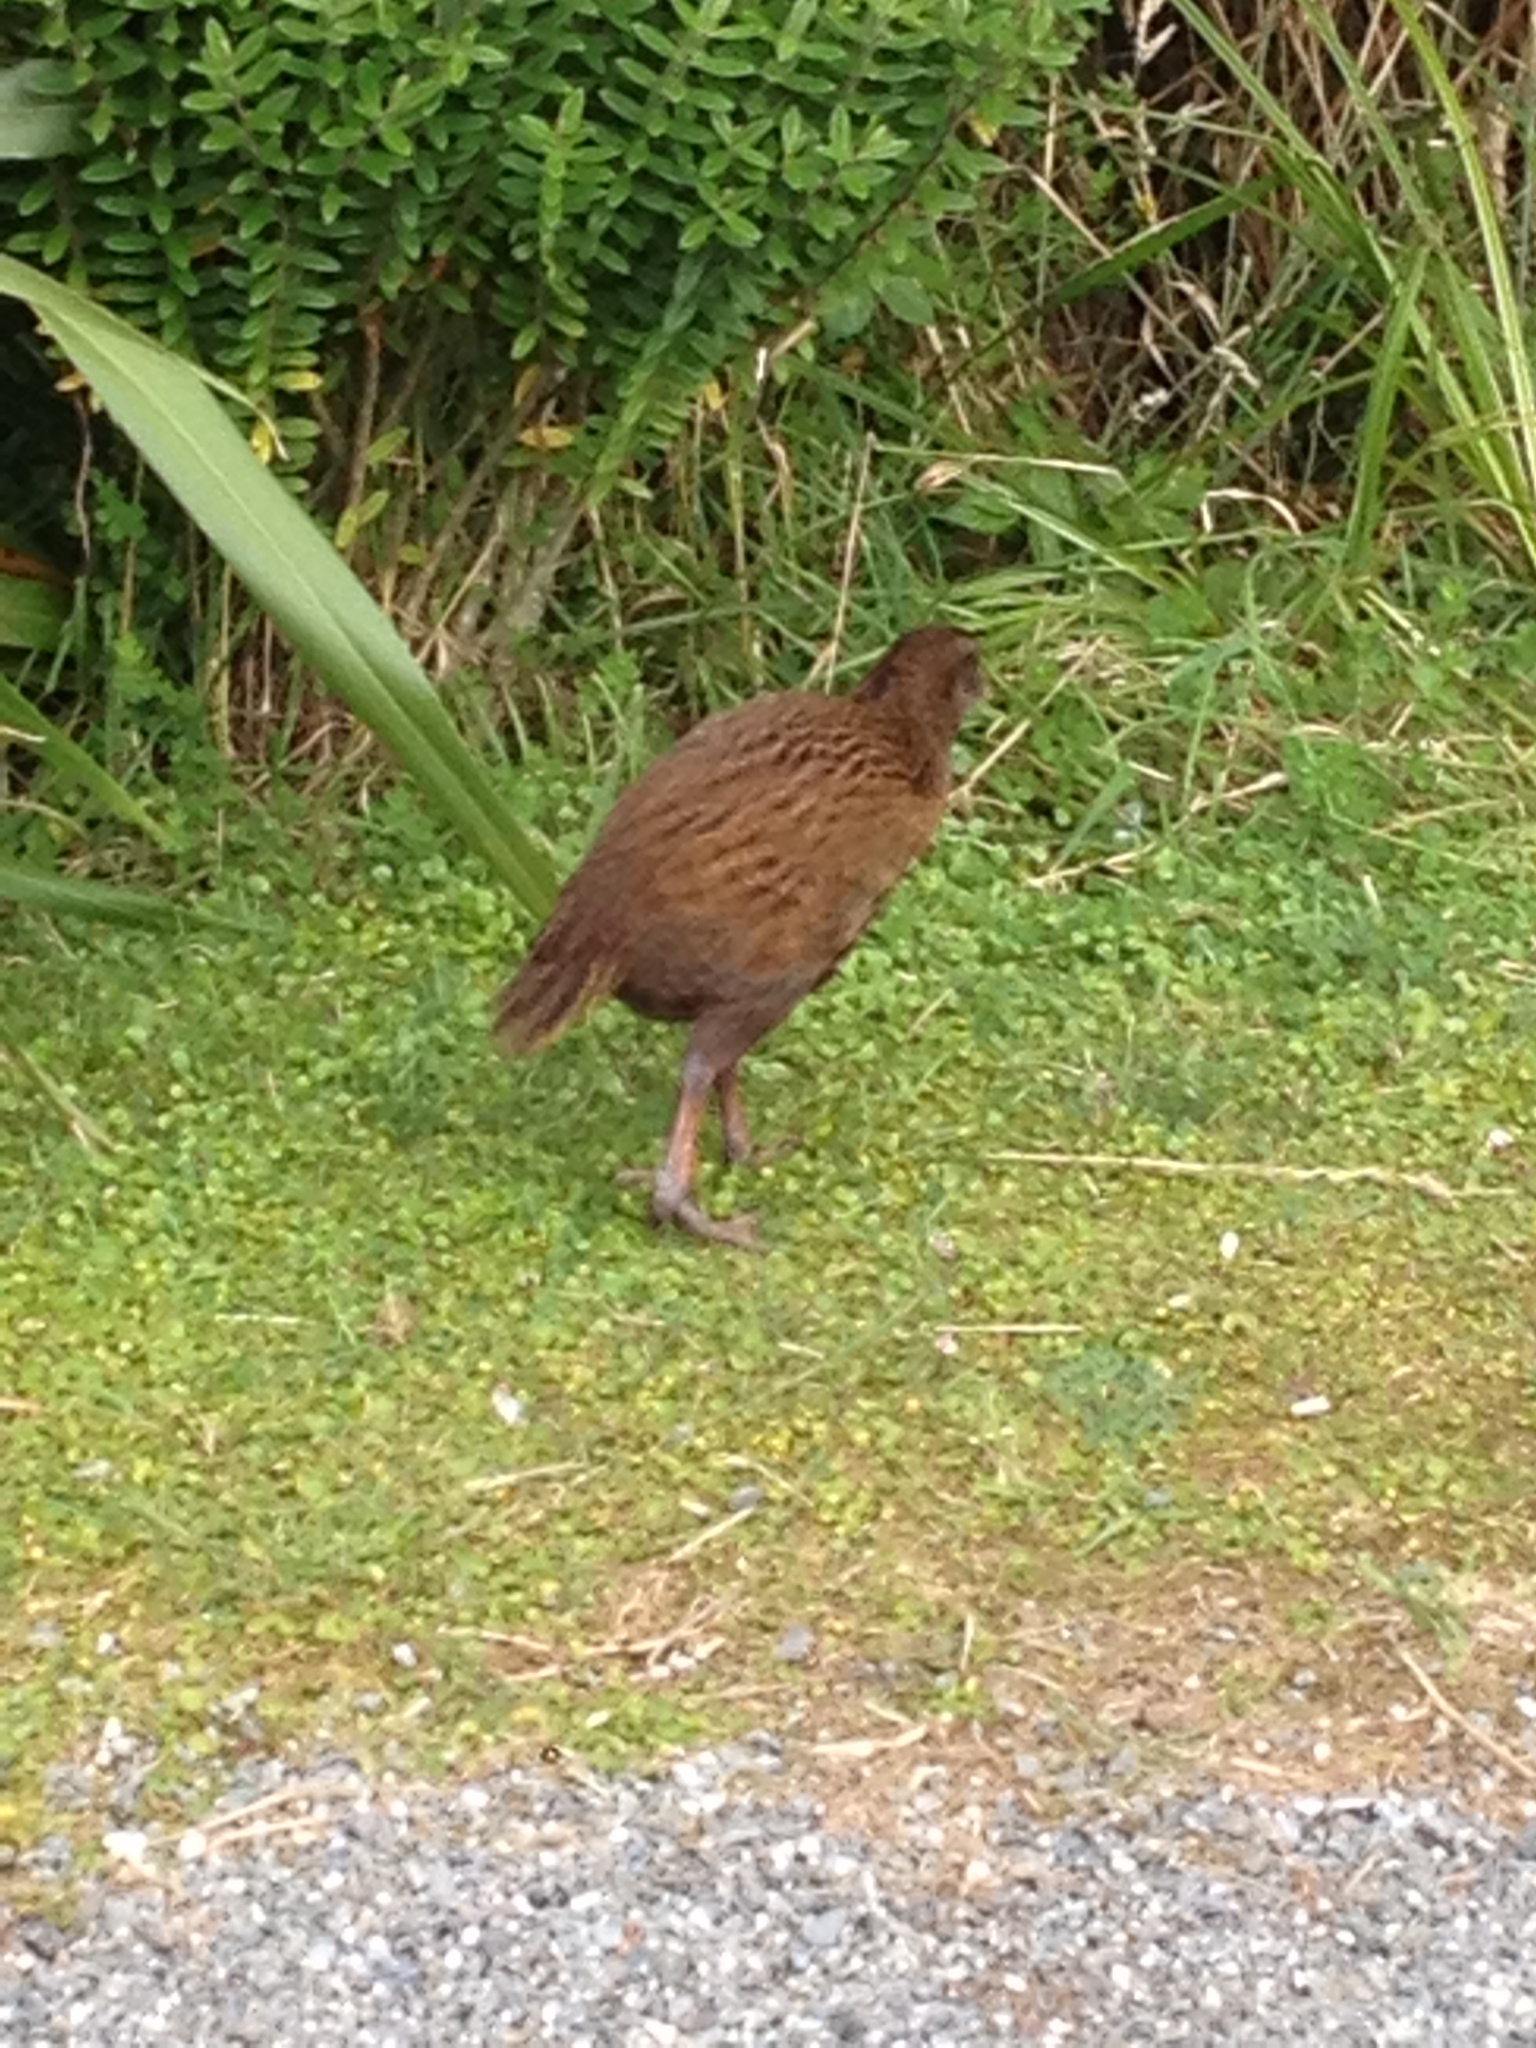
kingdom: Animalia
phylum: Chordata
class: Aves
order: Gruiformes
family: Rallidae
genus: Gallirallus
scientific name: Gallirallus australis
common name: Weka
